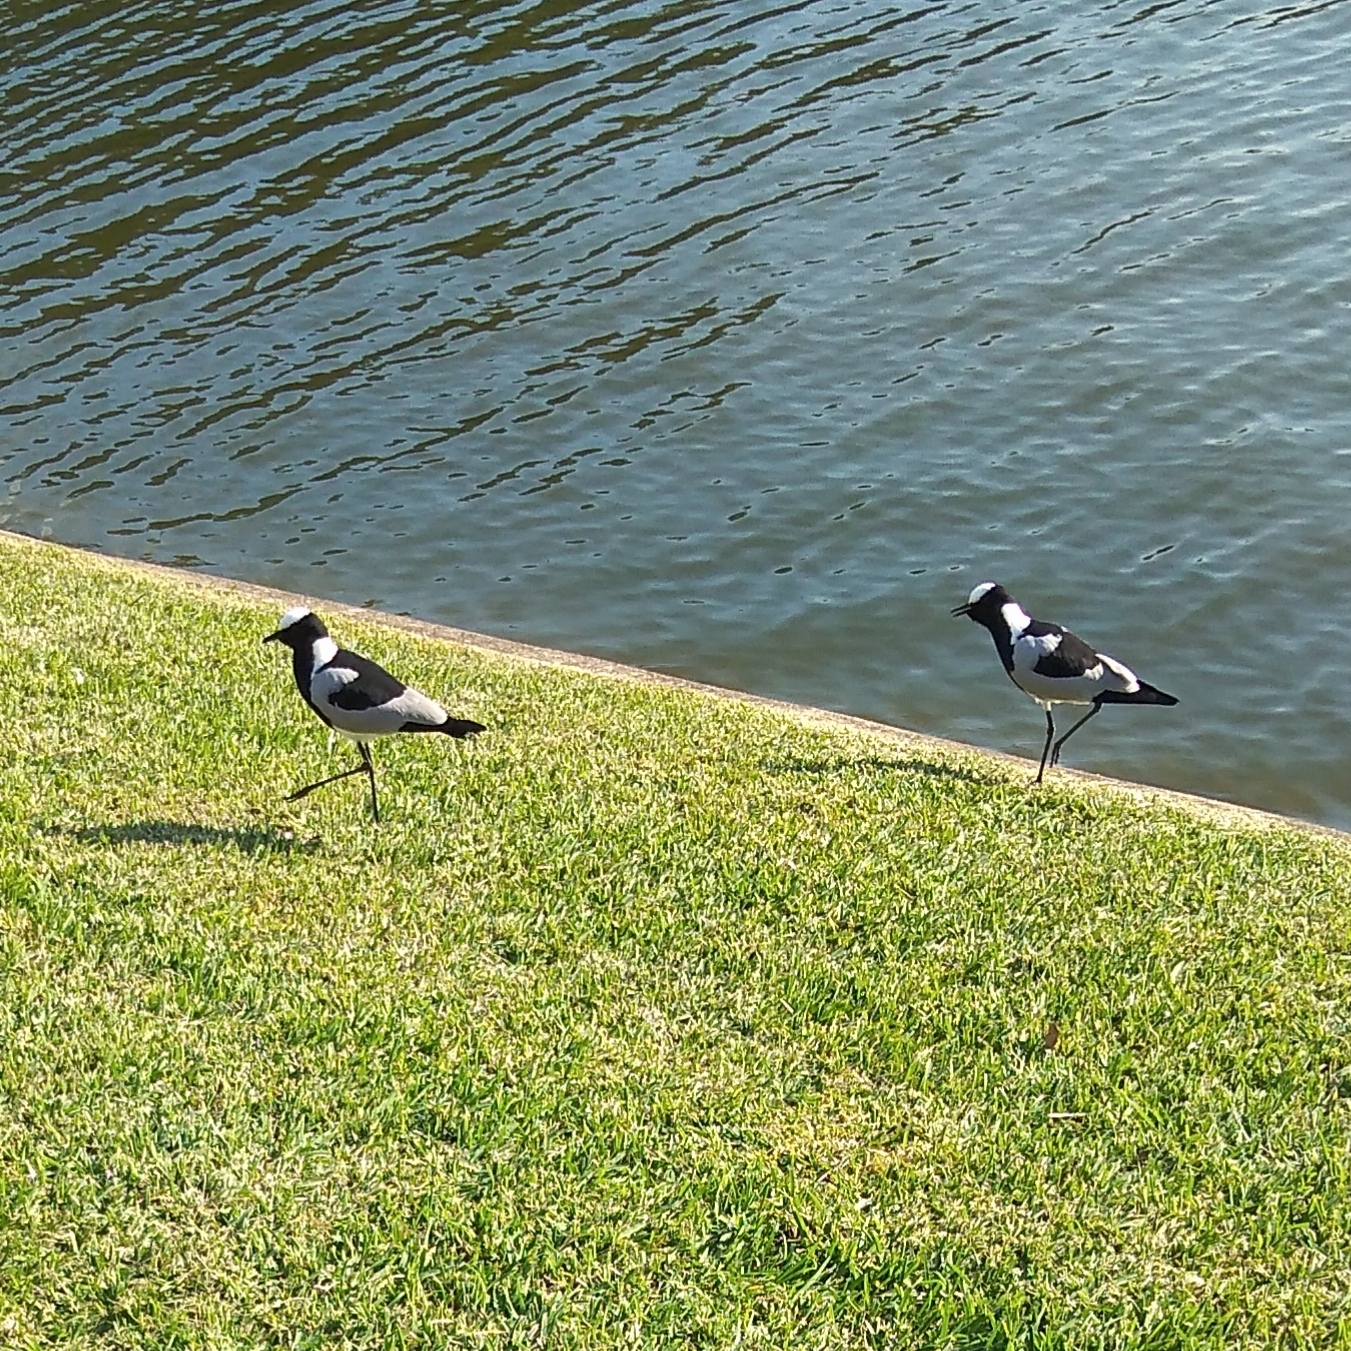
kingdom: Animalia
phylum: Chordata
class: Aves
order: Charadriiformes
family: Charadriidae
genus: Vanellus
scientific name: Vanellus armatus
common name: Blacksmith lapwing
